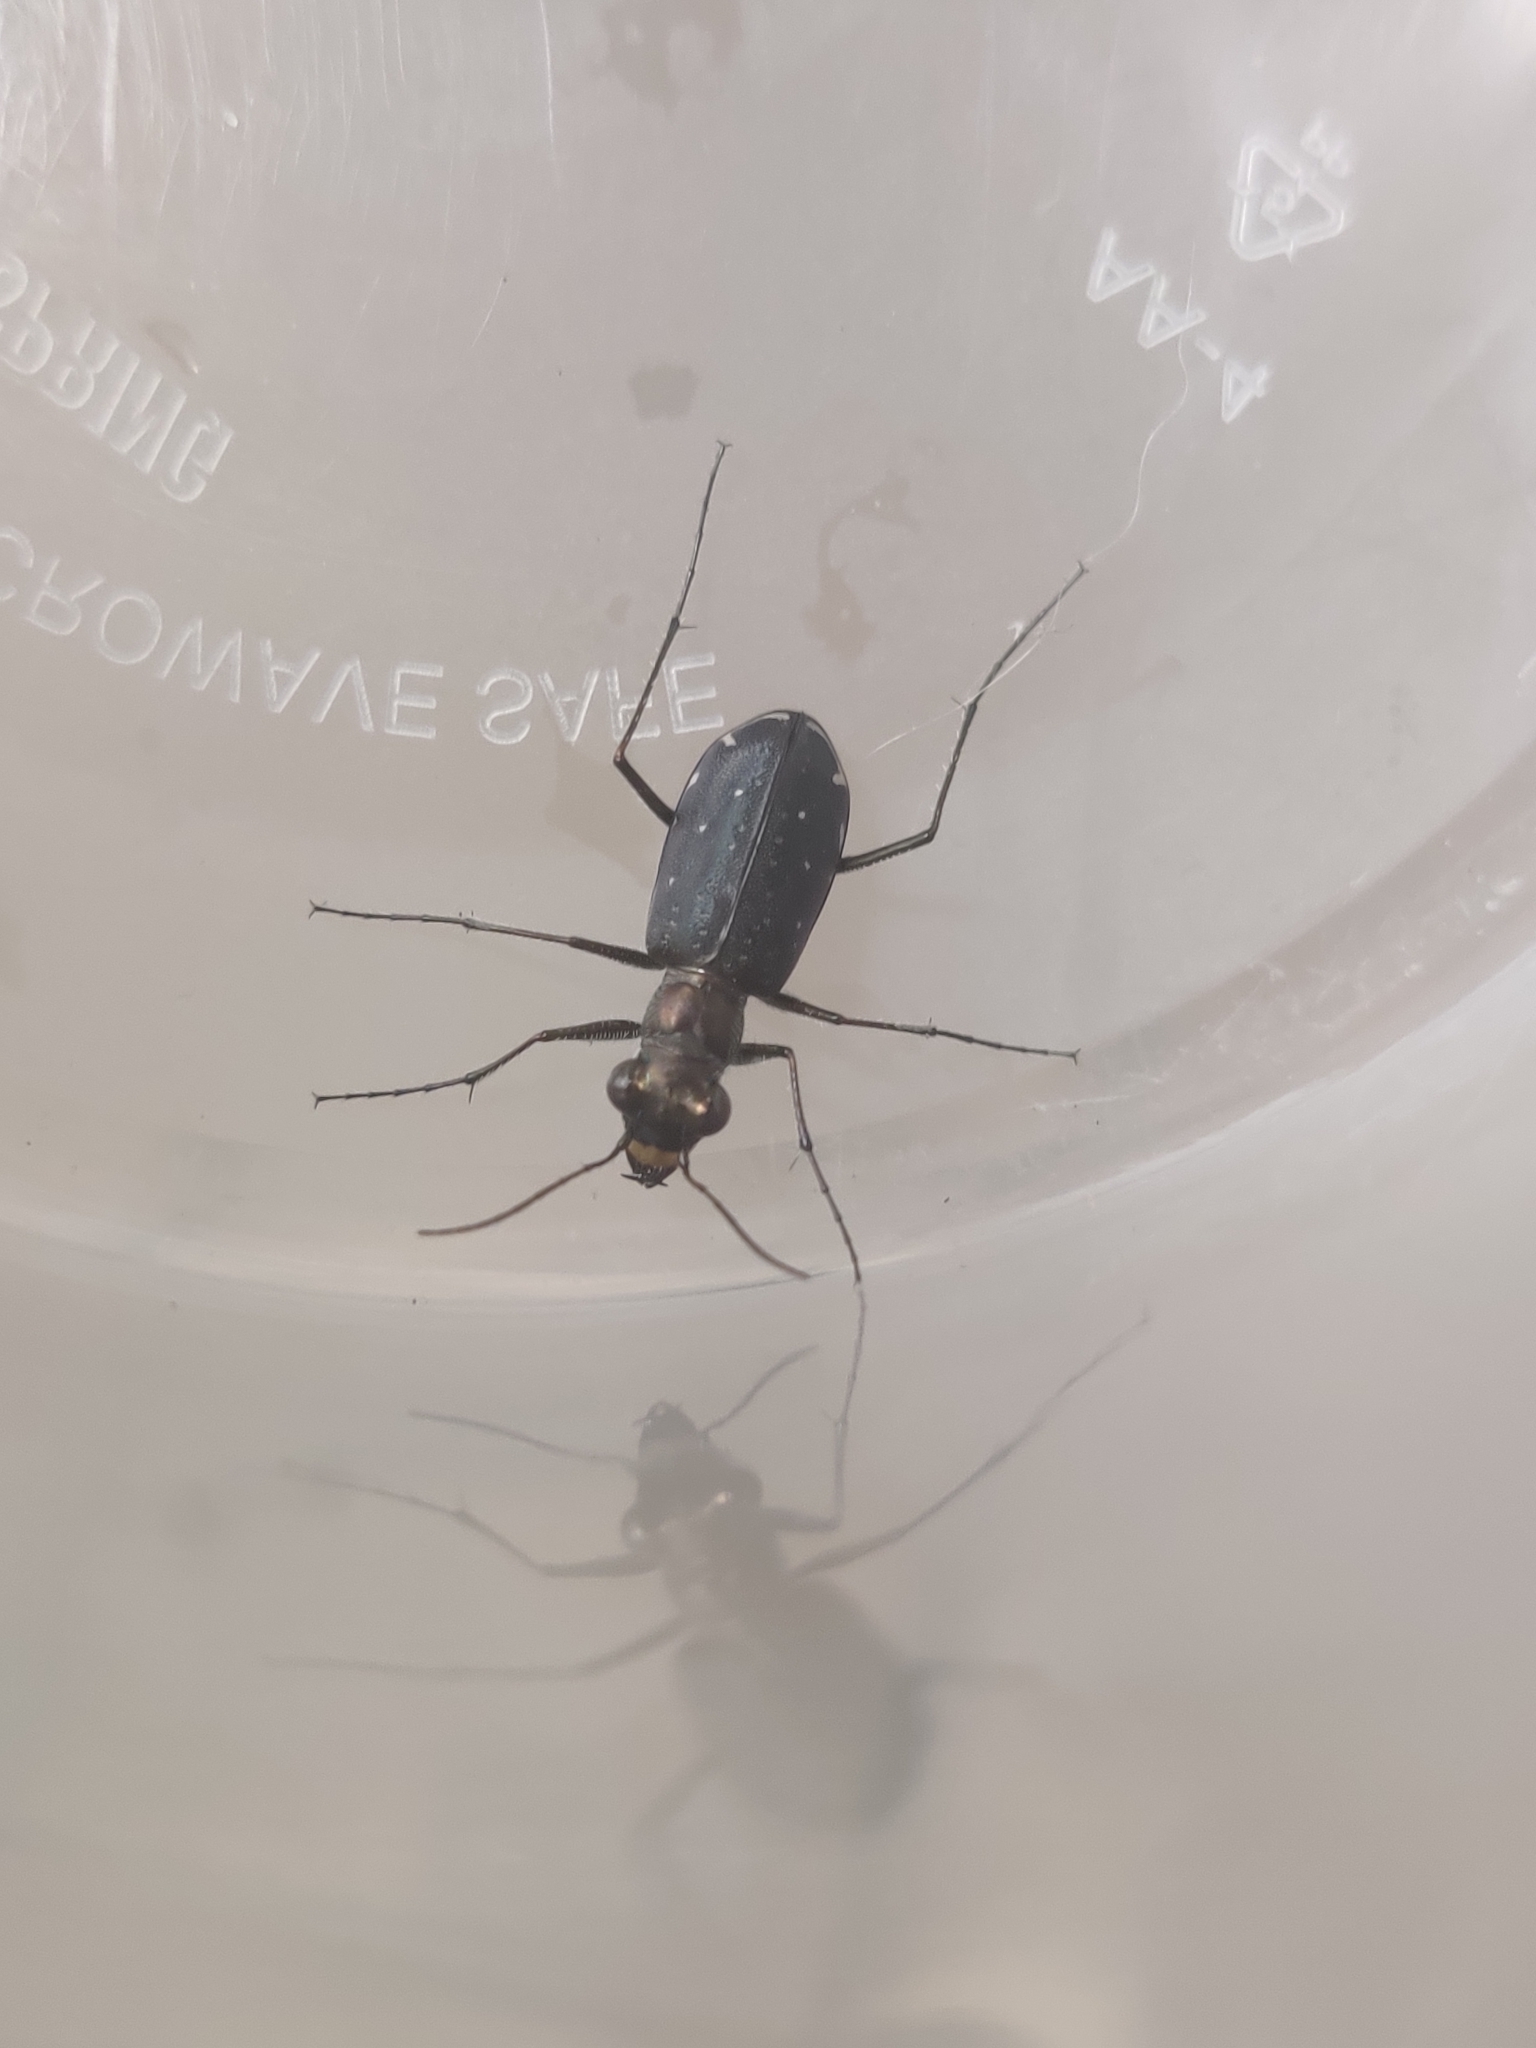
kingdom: Animalia
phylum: Arthropoda
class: Insecta
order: Coleoptera
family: Carabidae
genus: Cicindela
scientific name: Cicindela punctulata
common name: Punctured tiger beetle
